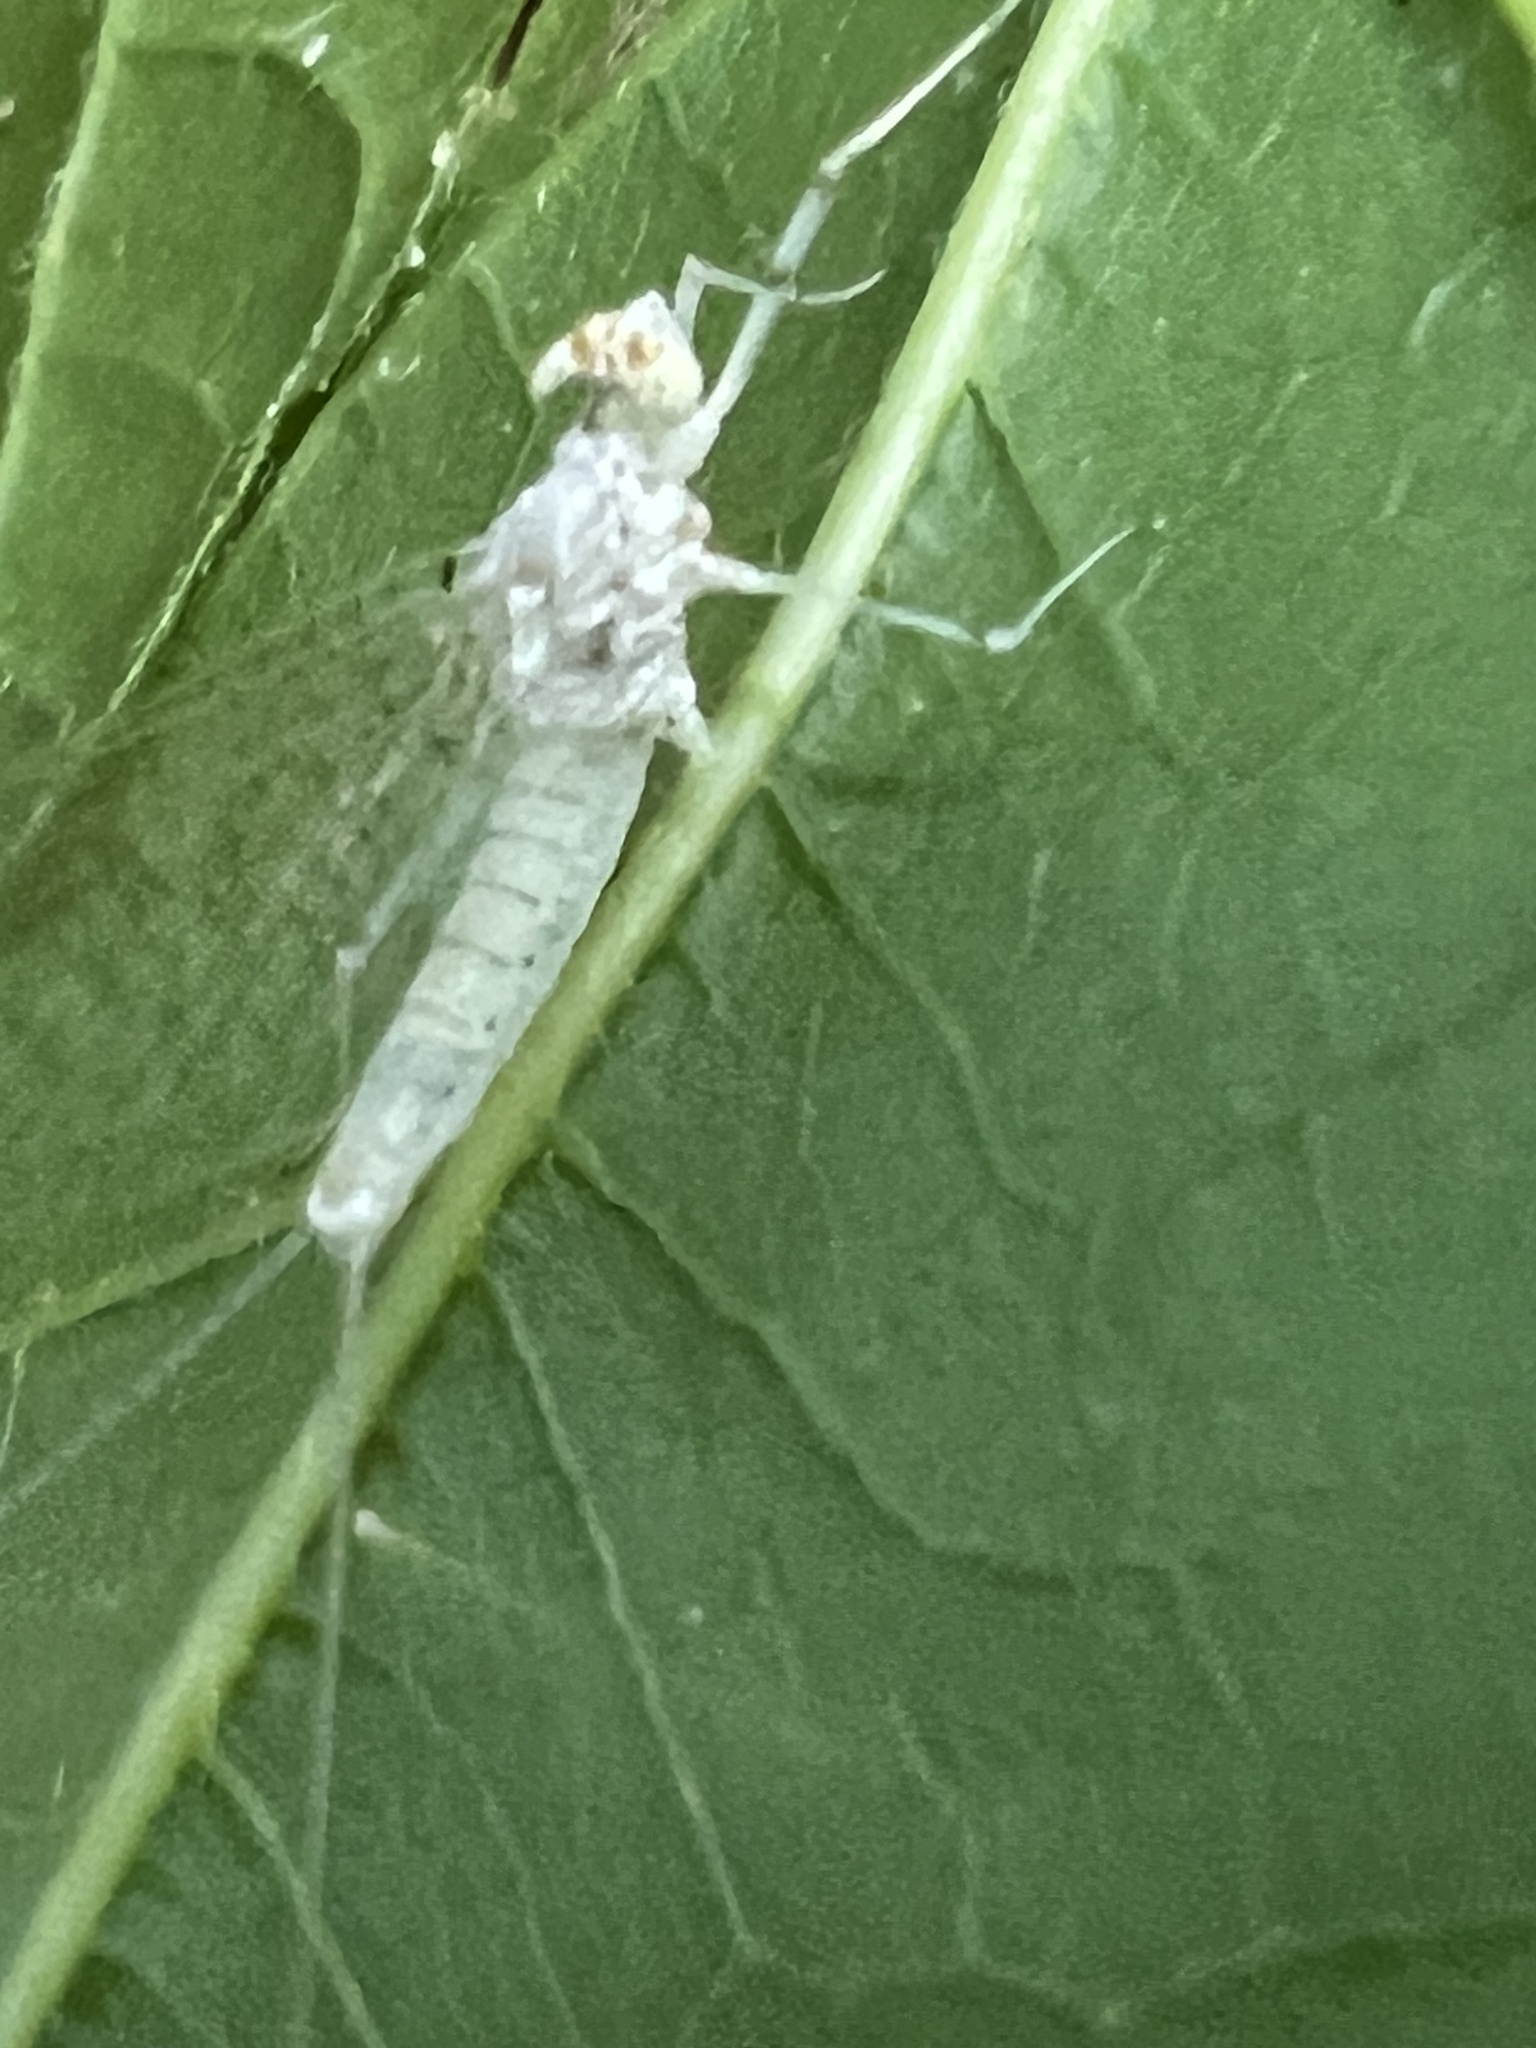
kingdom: Animalia
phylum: Arthropoda
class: Insecta
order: Ephemeroptera
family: Heptageniidae
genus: Maccaffertium
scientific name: Maccaffertium modestum
